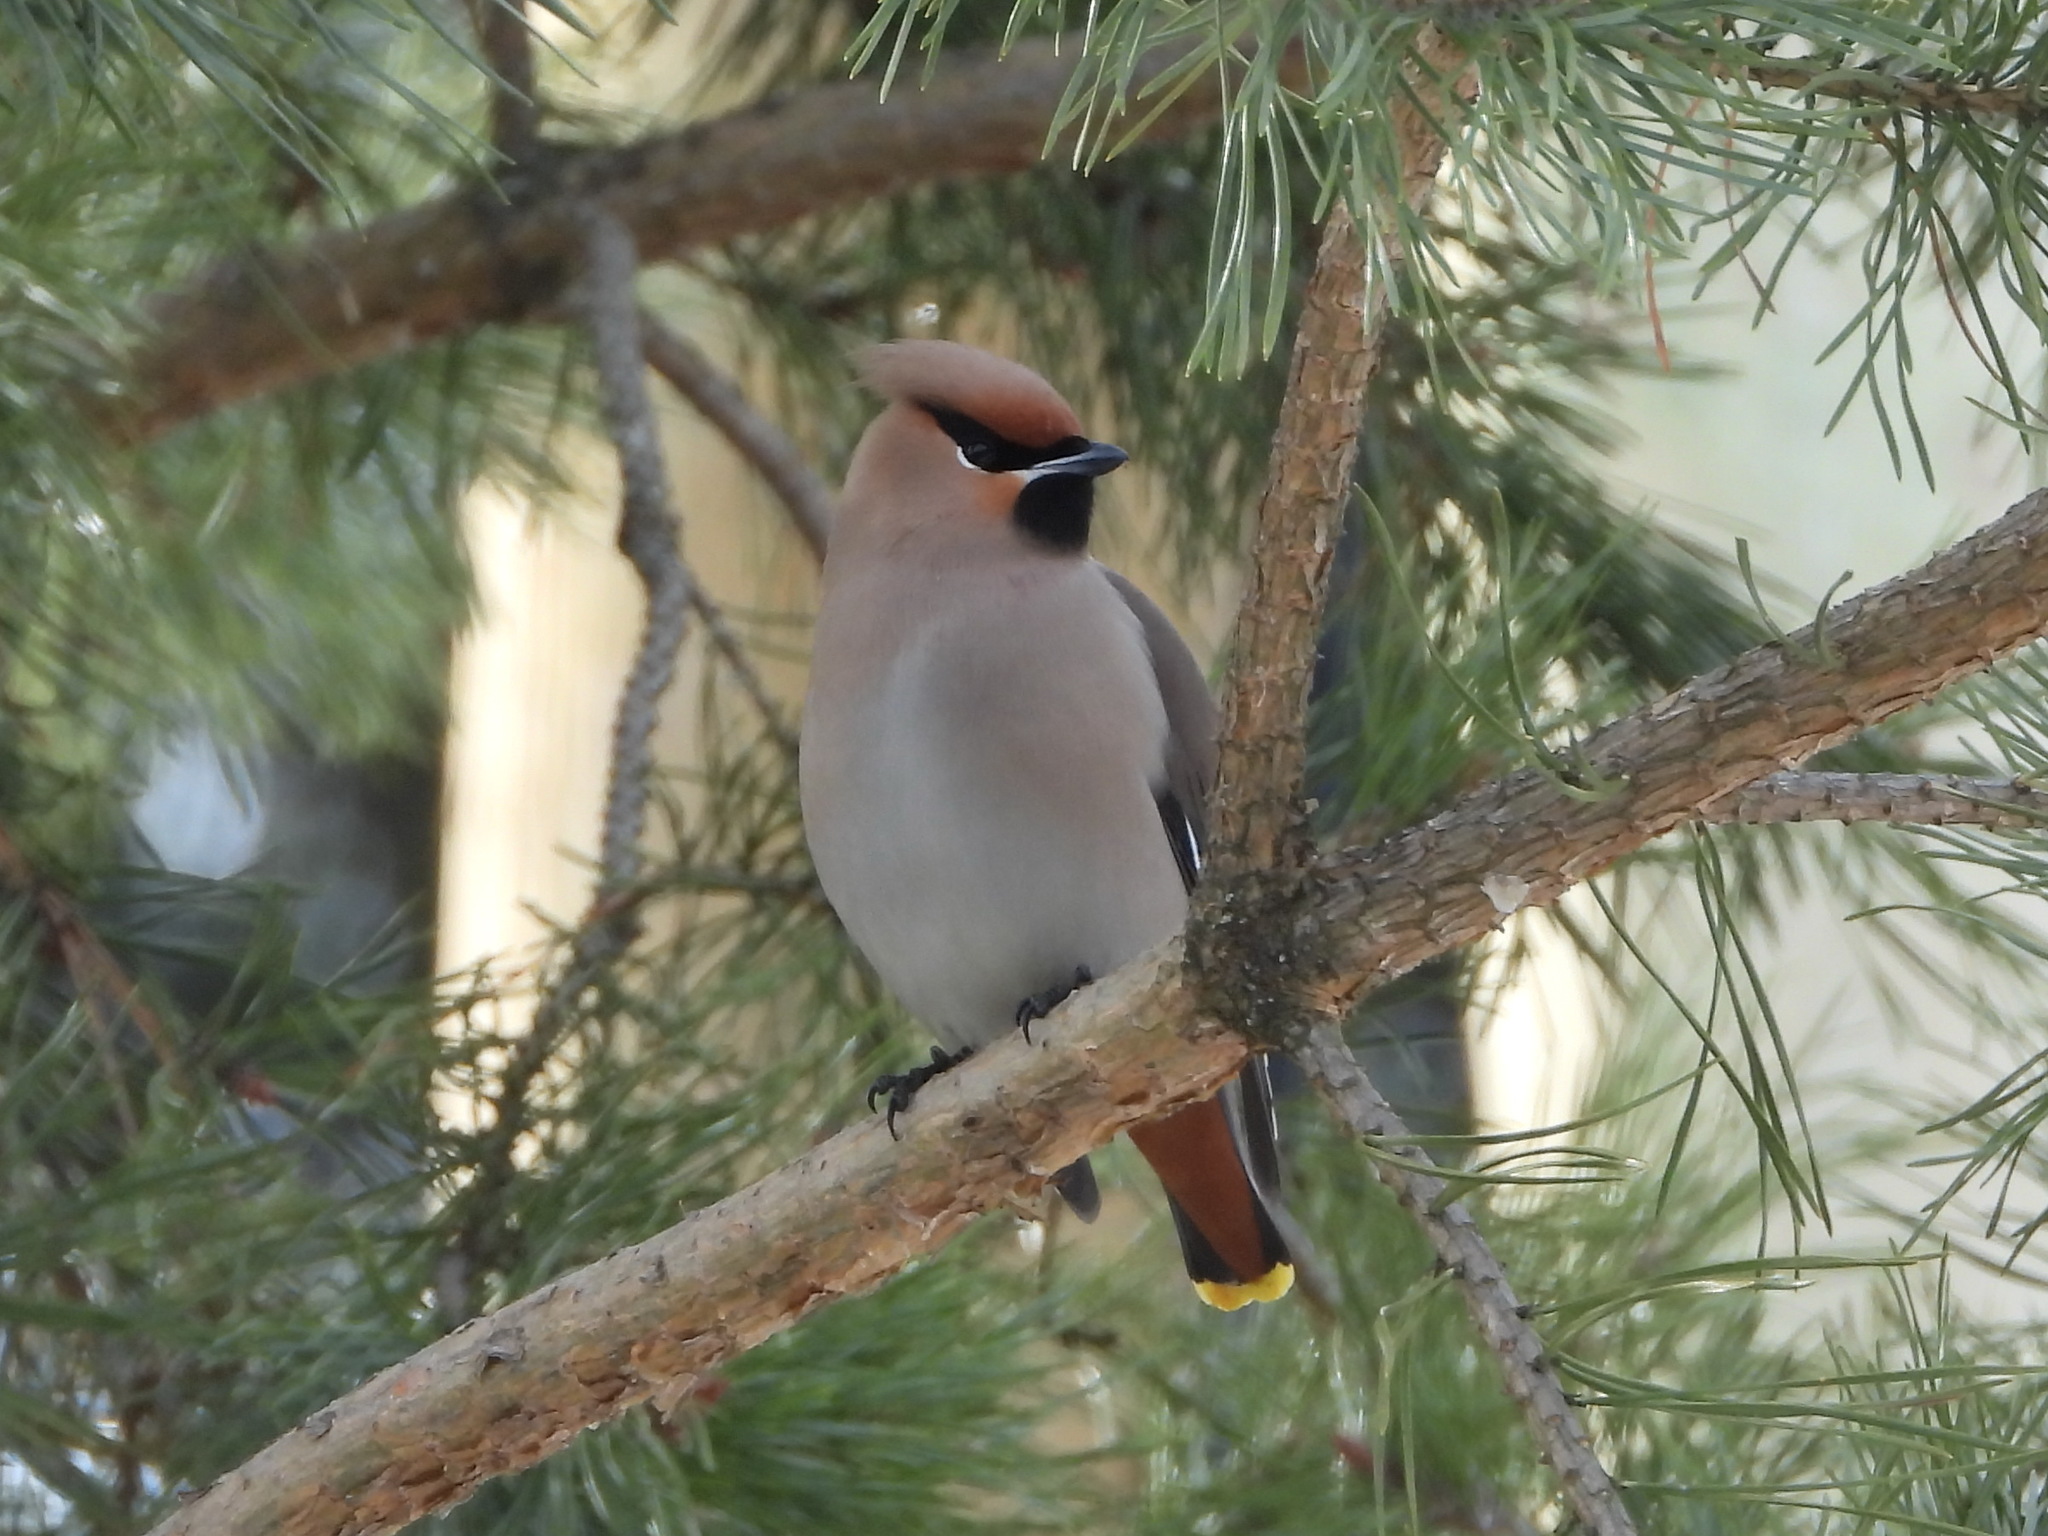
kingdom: Animalia
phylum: Chordata
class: Aves
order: Passeriformes
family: Bombycillidae
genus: Bombycilla
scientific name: Bombycilla garrulus
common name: Bohemian waxwing
